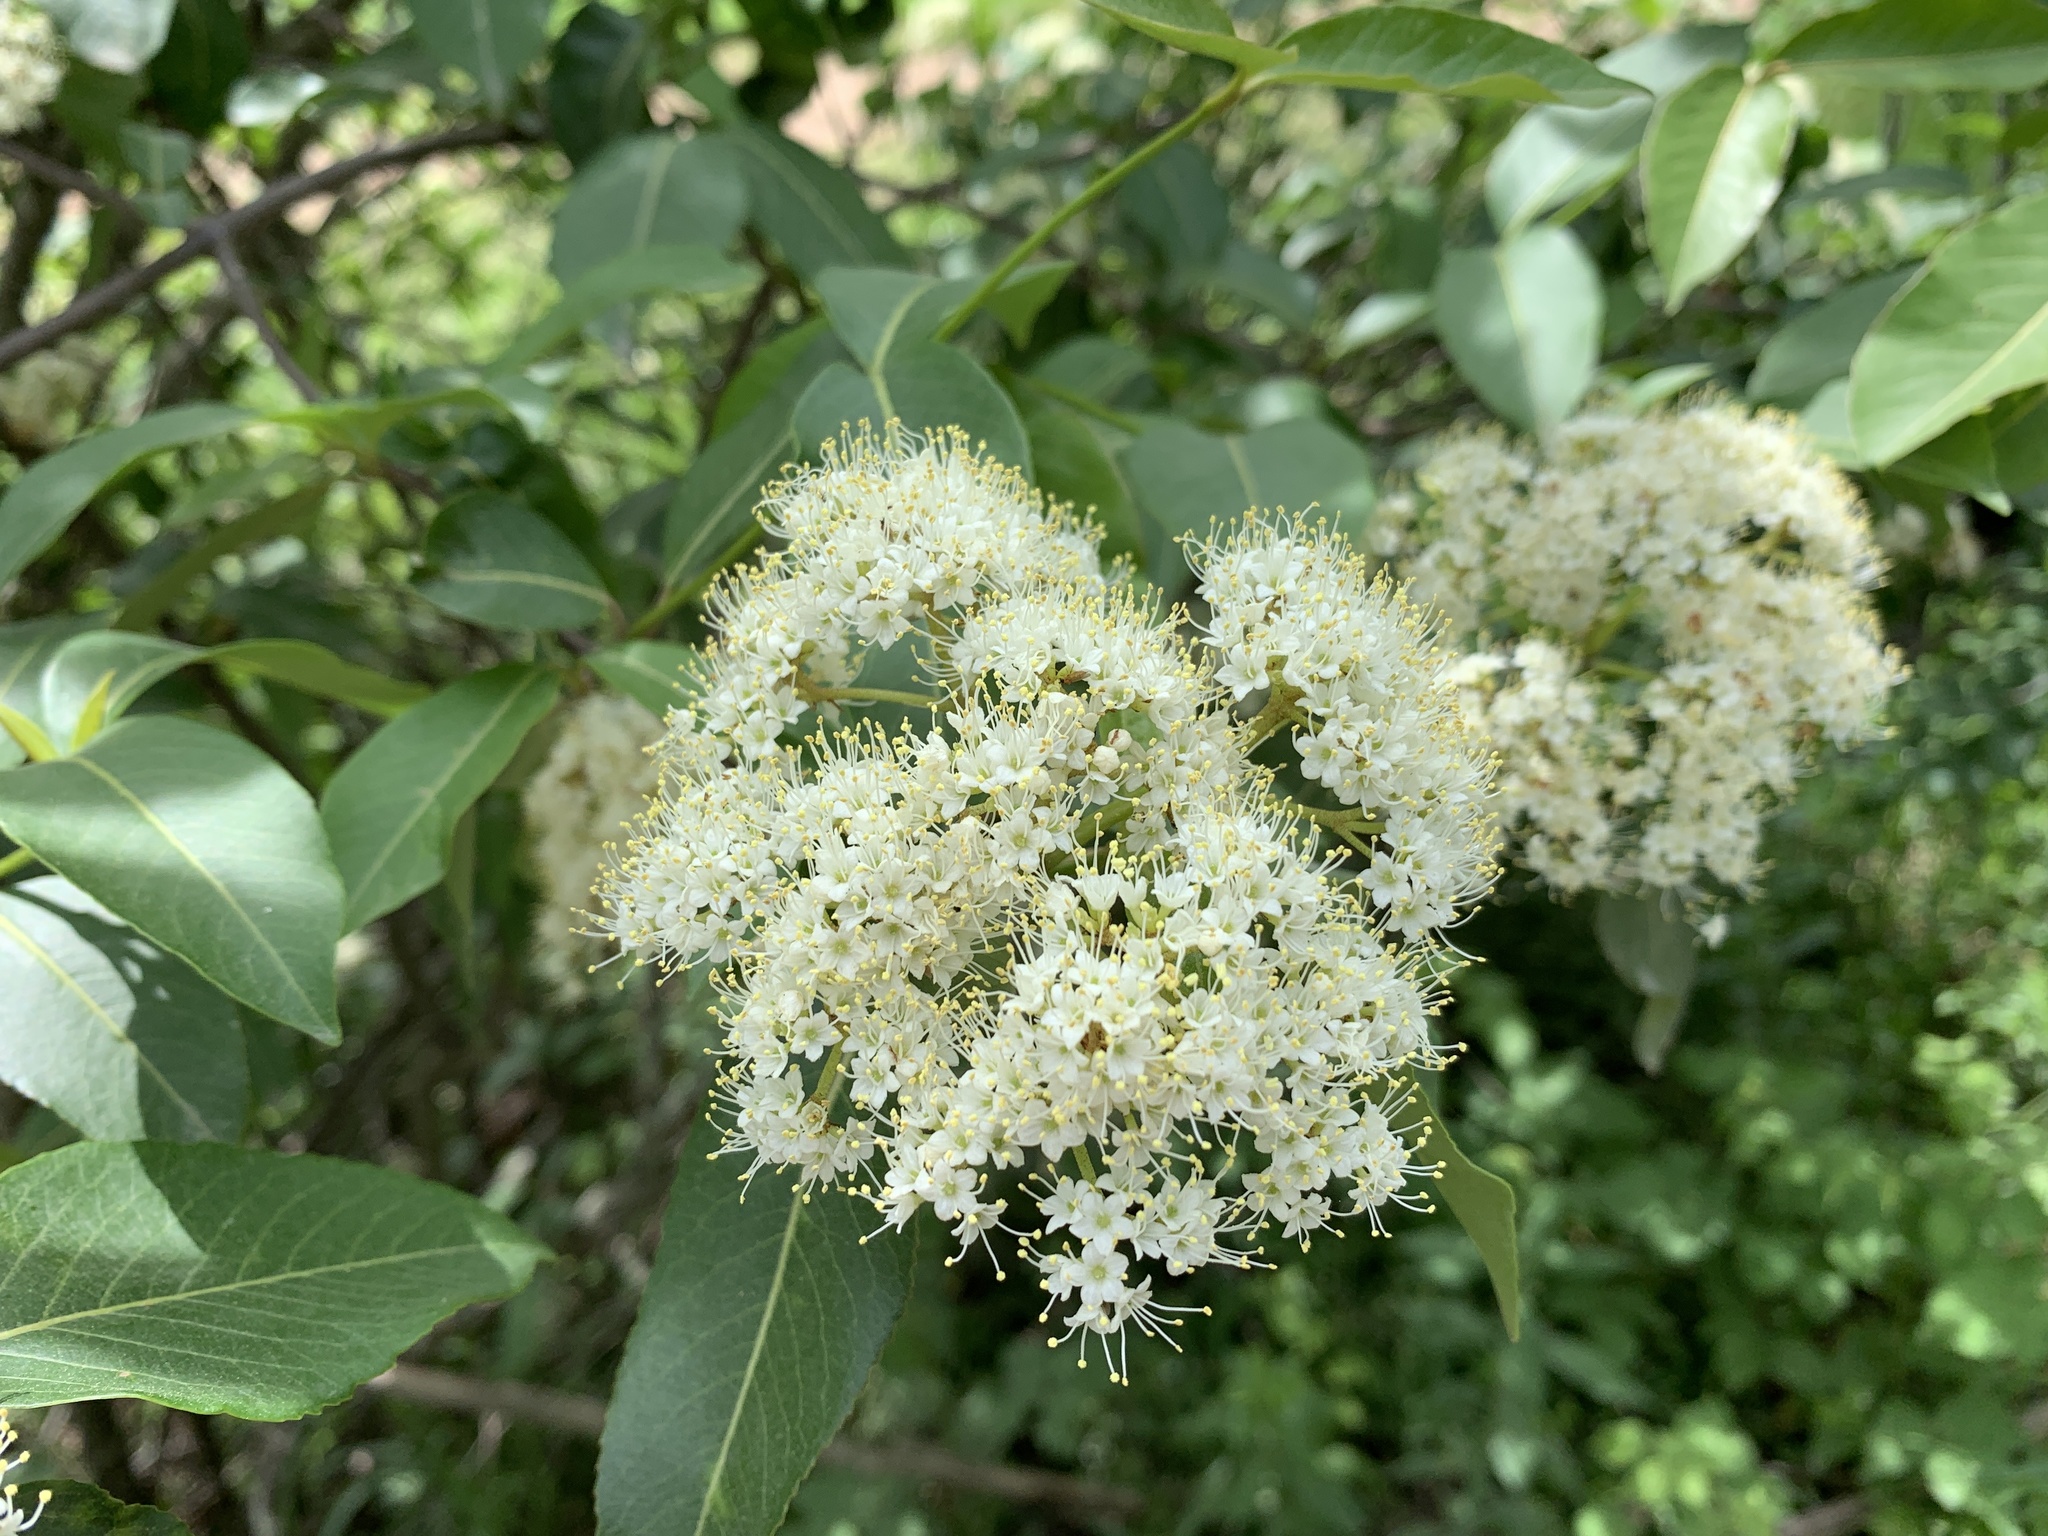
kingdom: Plantae
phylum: Tracheophyta
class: Magnoliopsida
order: Dipsacales
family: Viburnaceae
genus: Viburnum
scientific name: Viburnum cassinoides
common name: Swamp haw
